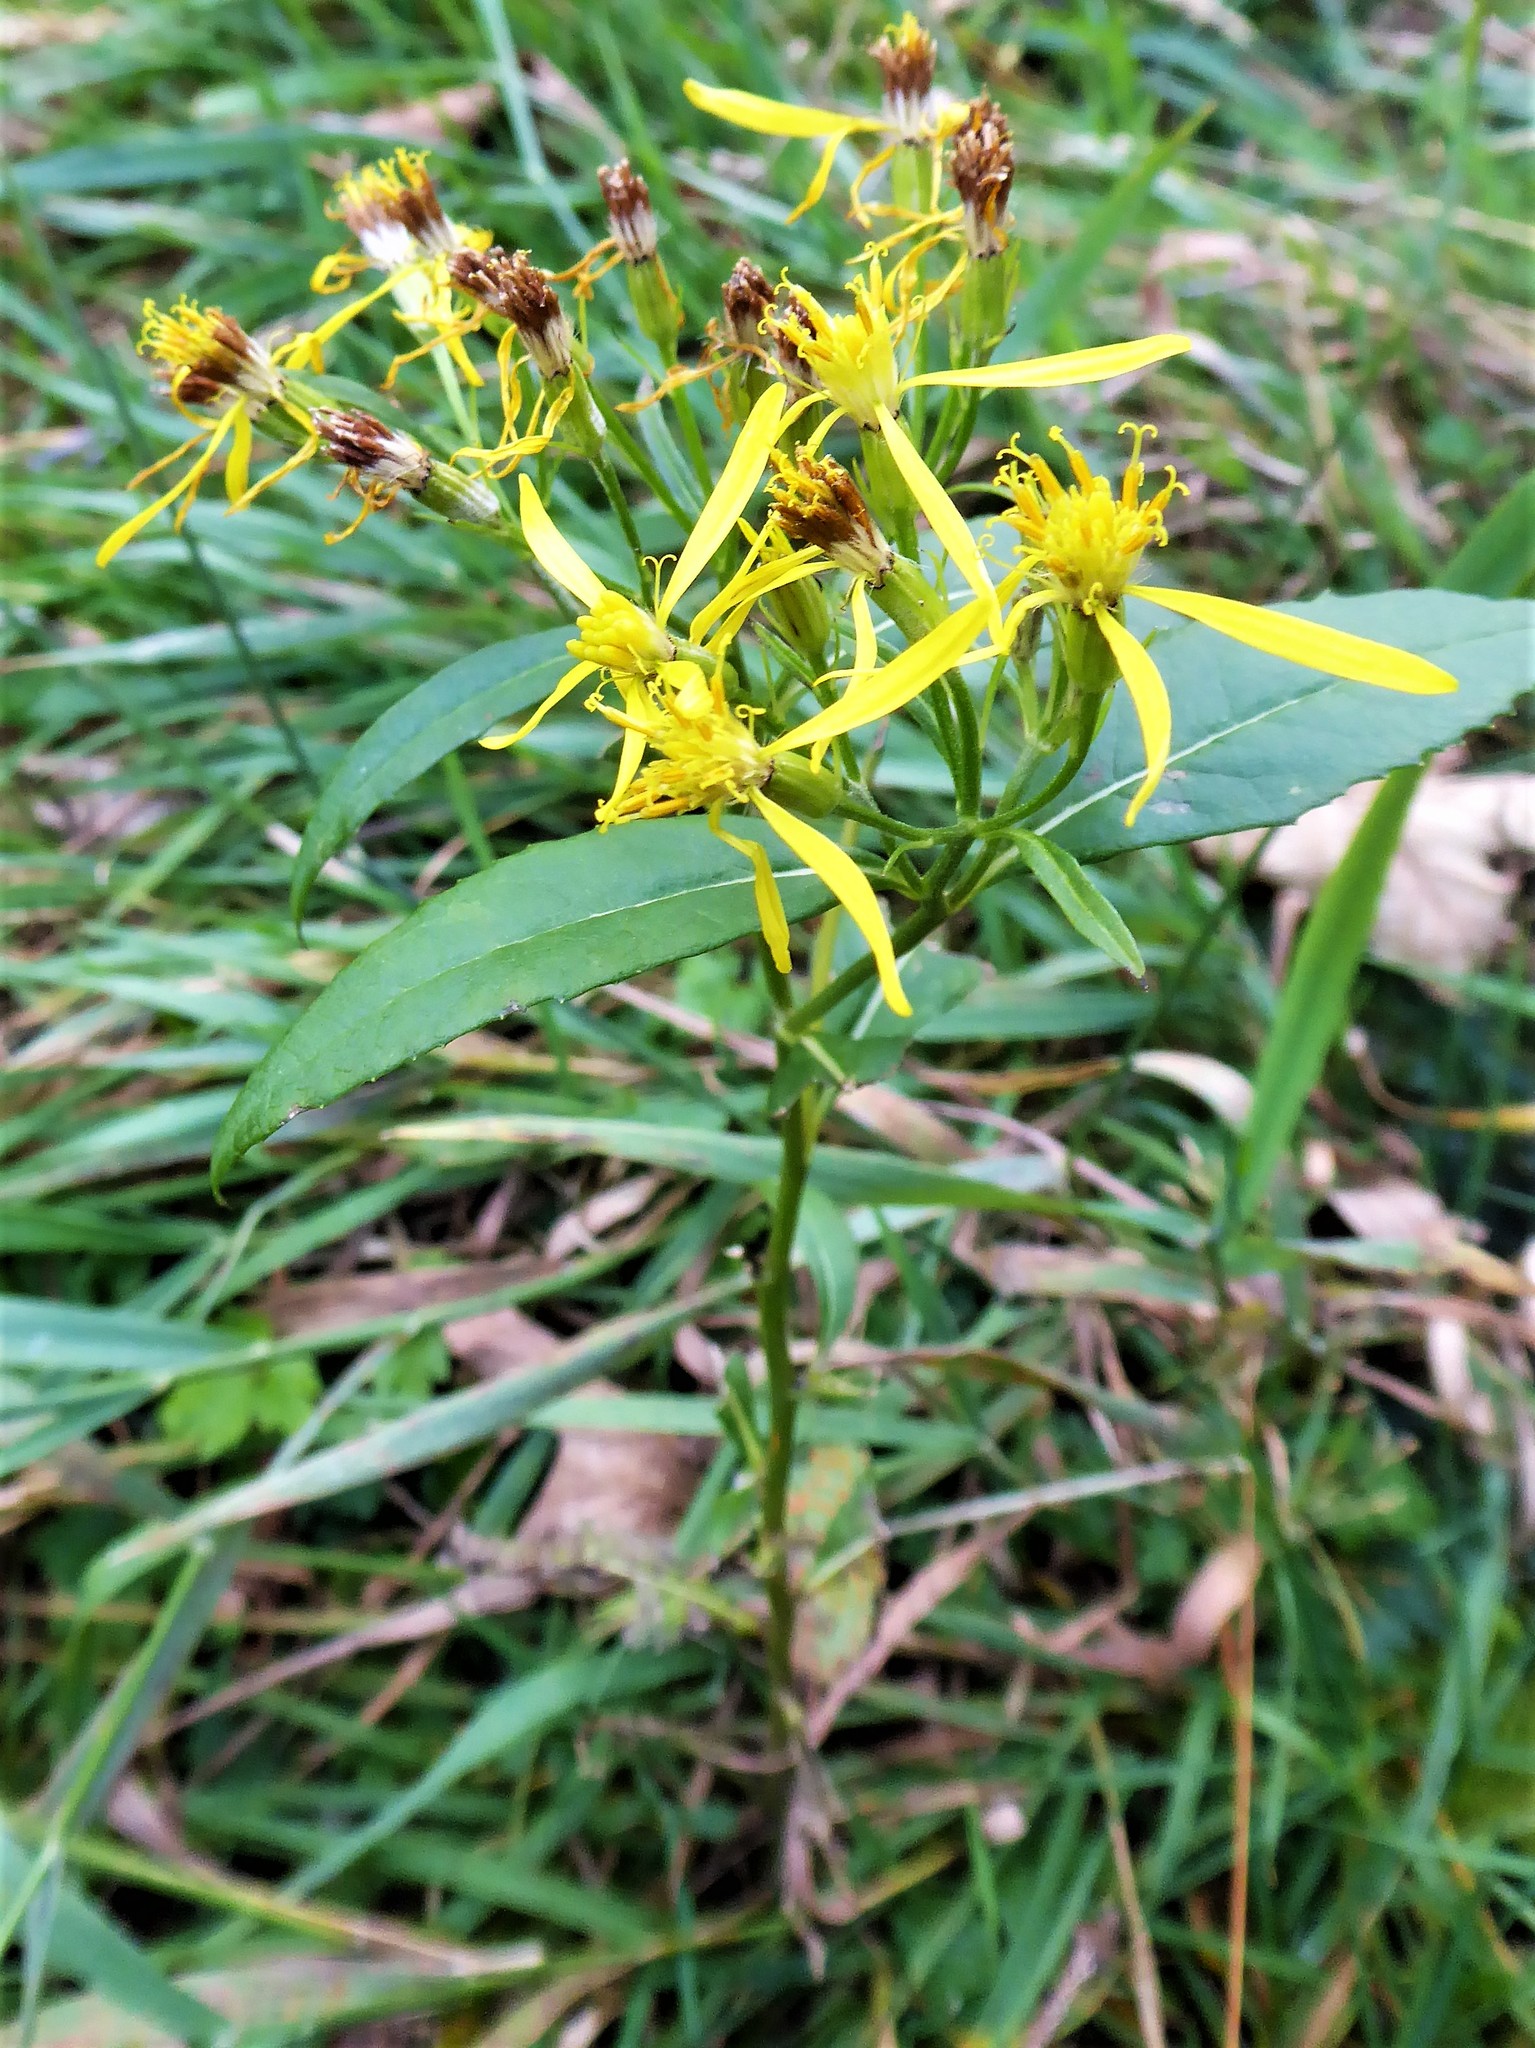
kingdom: Plantae
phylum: Tracheophyta
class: Magnoliopsida
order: Asterales
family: Asteraceae
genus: Senecio
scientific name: Senecio ovatus
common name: Wood ragwort
